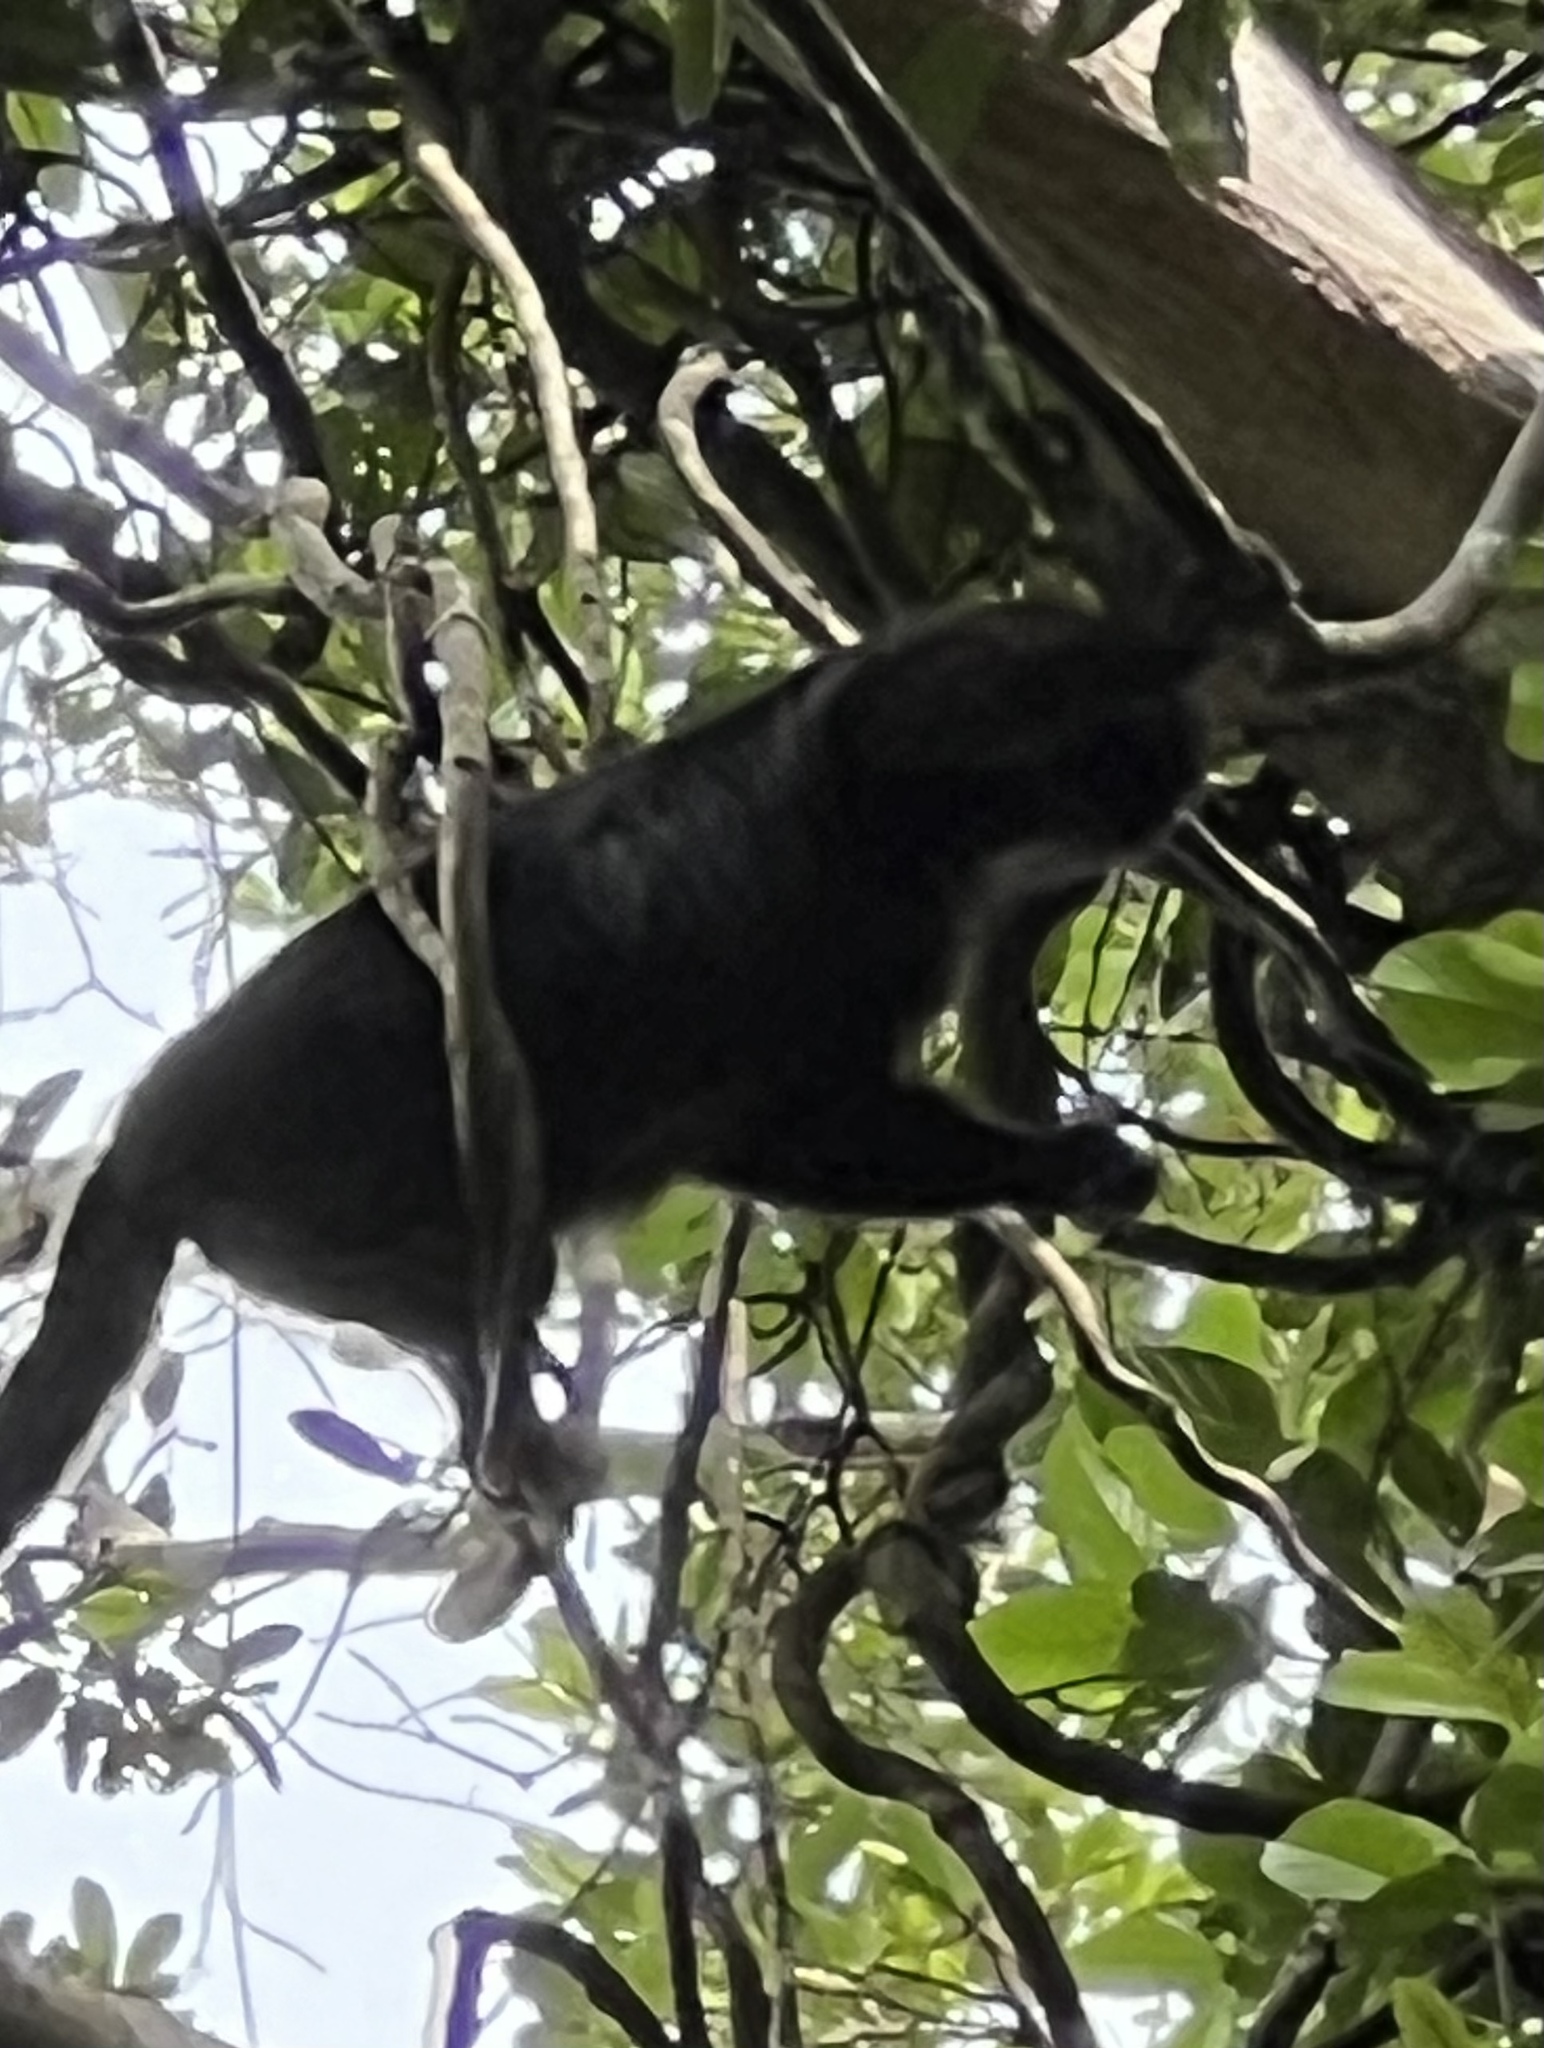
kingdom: Animalia
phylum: Chordata
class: Mammalia
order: Primates
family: Atelidae
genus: Alouatta
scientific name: Alouatta pigra
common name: Guatemalan black howler
